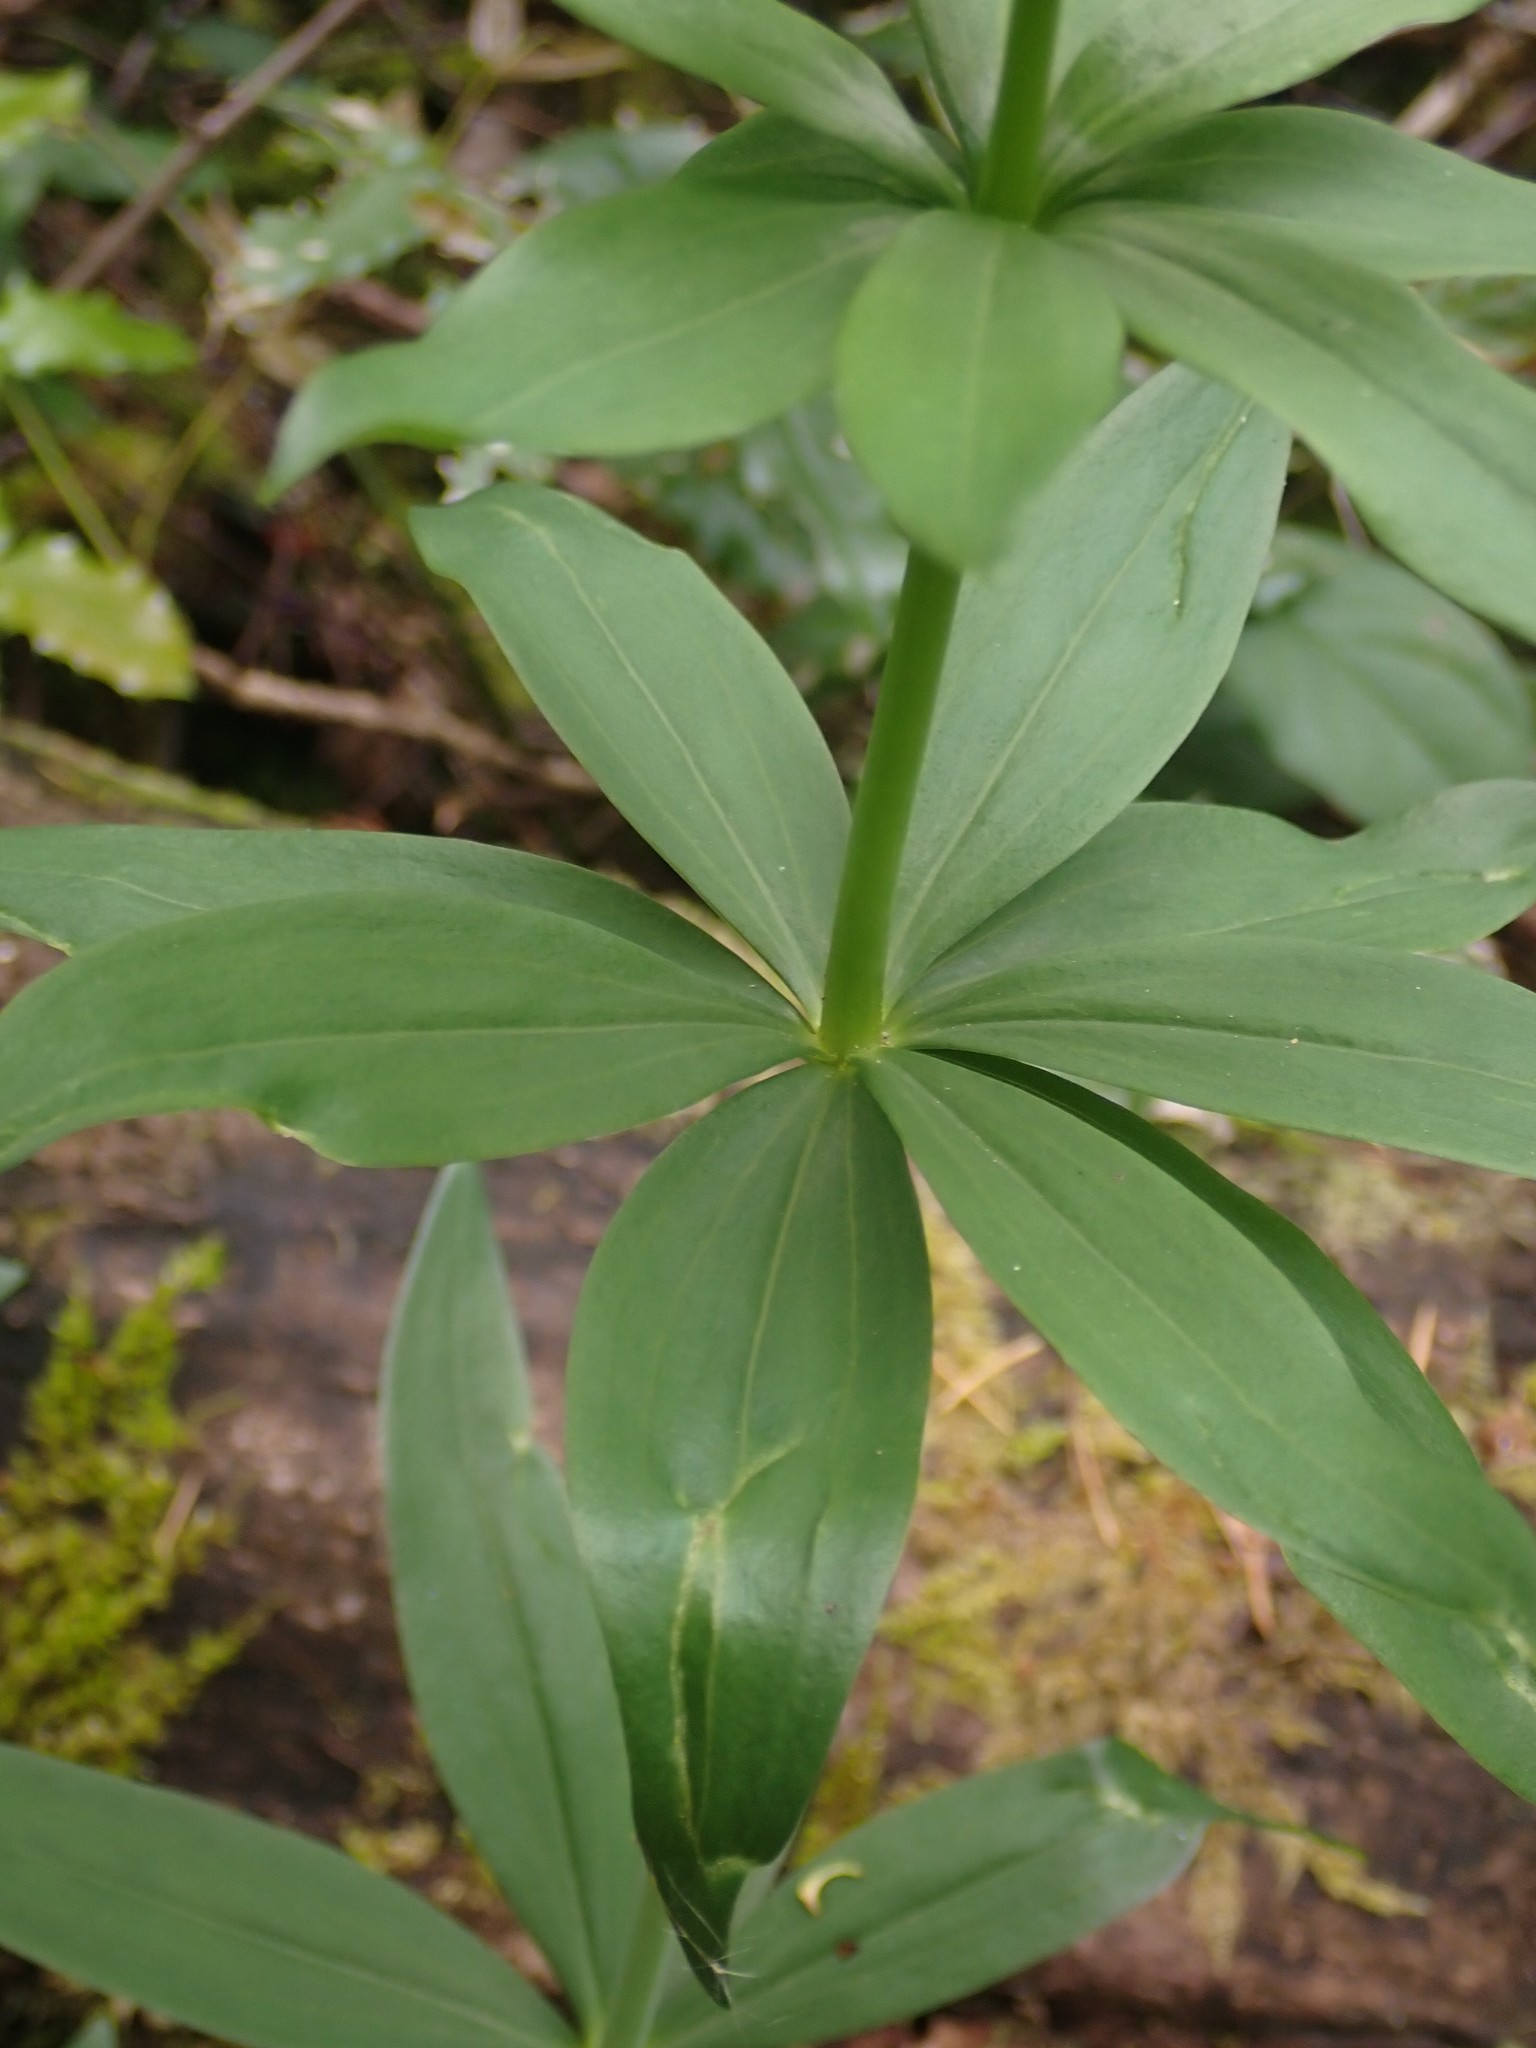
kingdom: Plantae
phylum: Tracheophyta
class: Liliopsida
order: Liliales
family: Liliaceae
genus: Lilium
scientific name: Lilium columbianum
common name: Columbia lily
